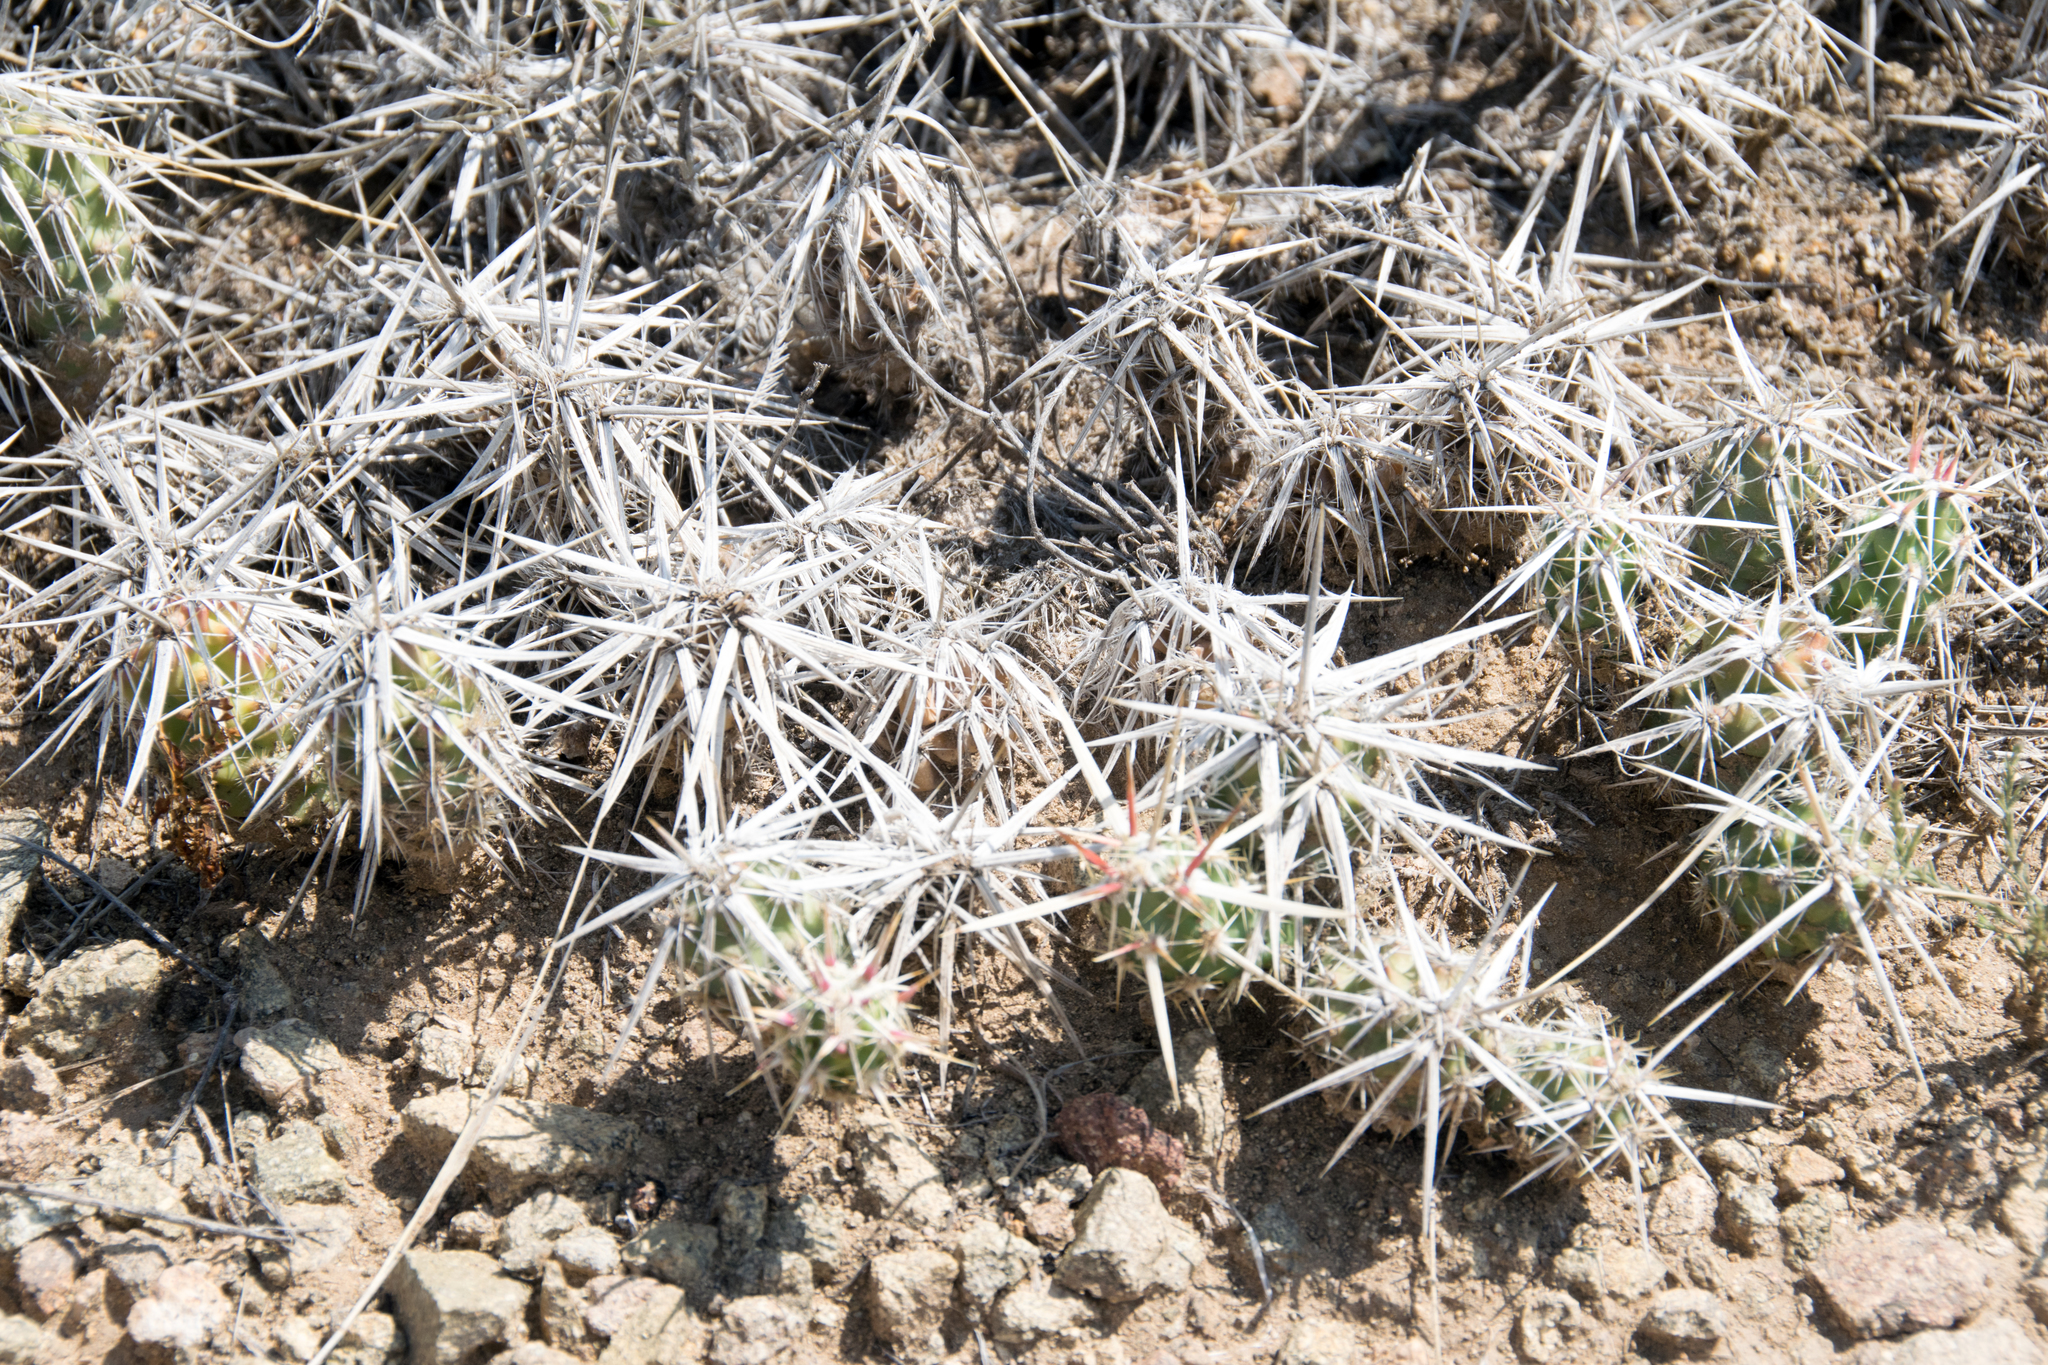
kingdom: Plantae
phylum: Tracheophyta
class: Magnoliopsida
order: Caryophyllales
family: Cactaceae
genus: Grusonia
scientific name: Grusonia clavata
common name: Club cholla
